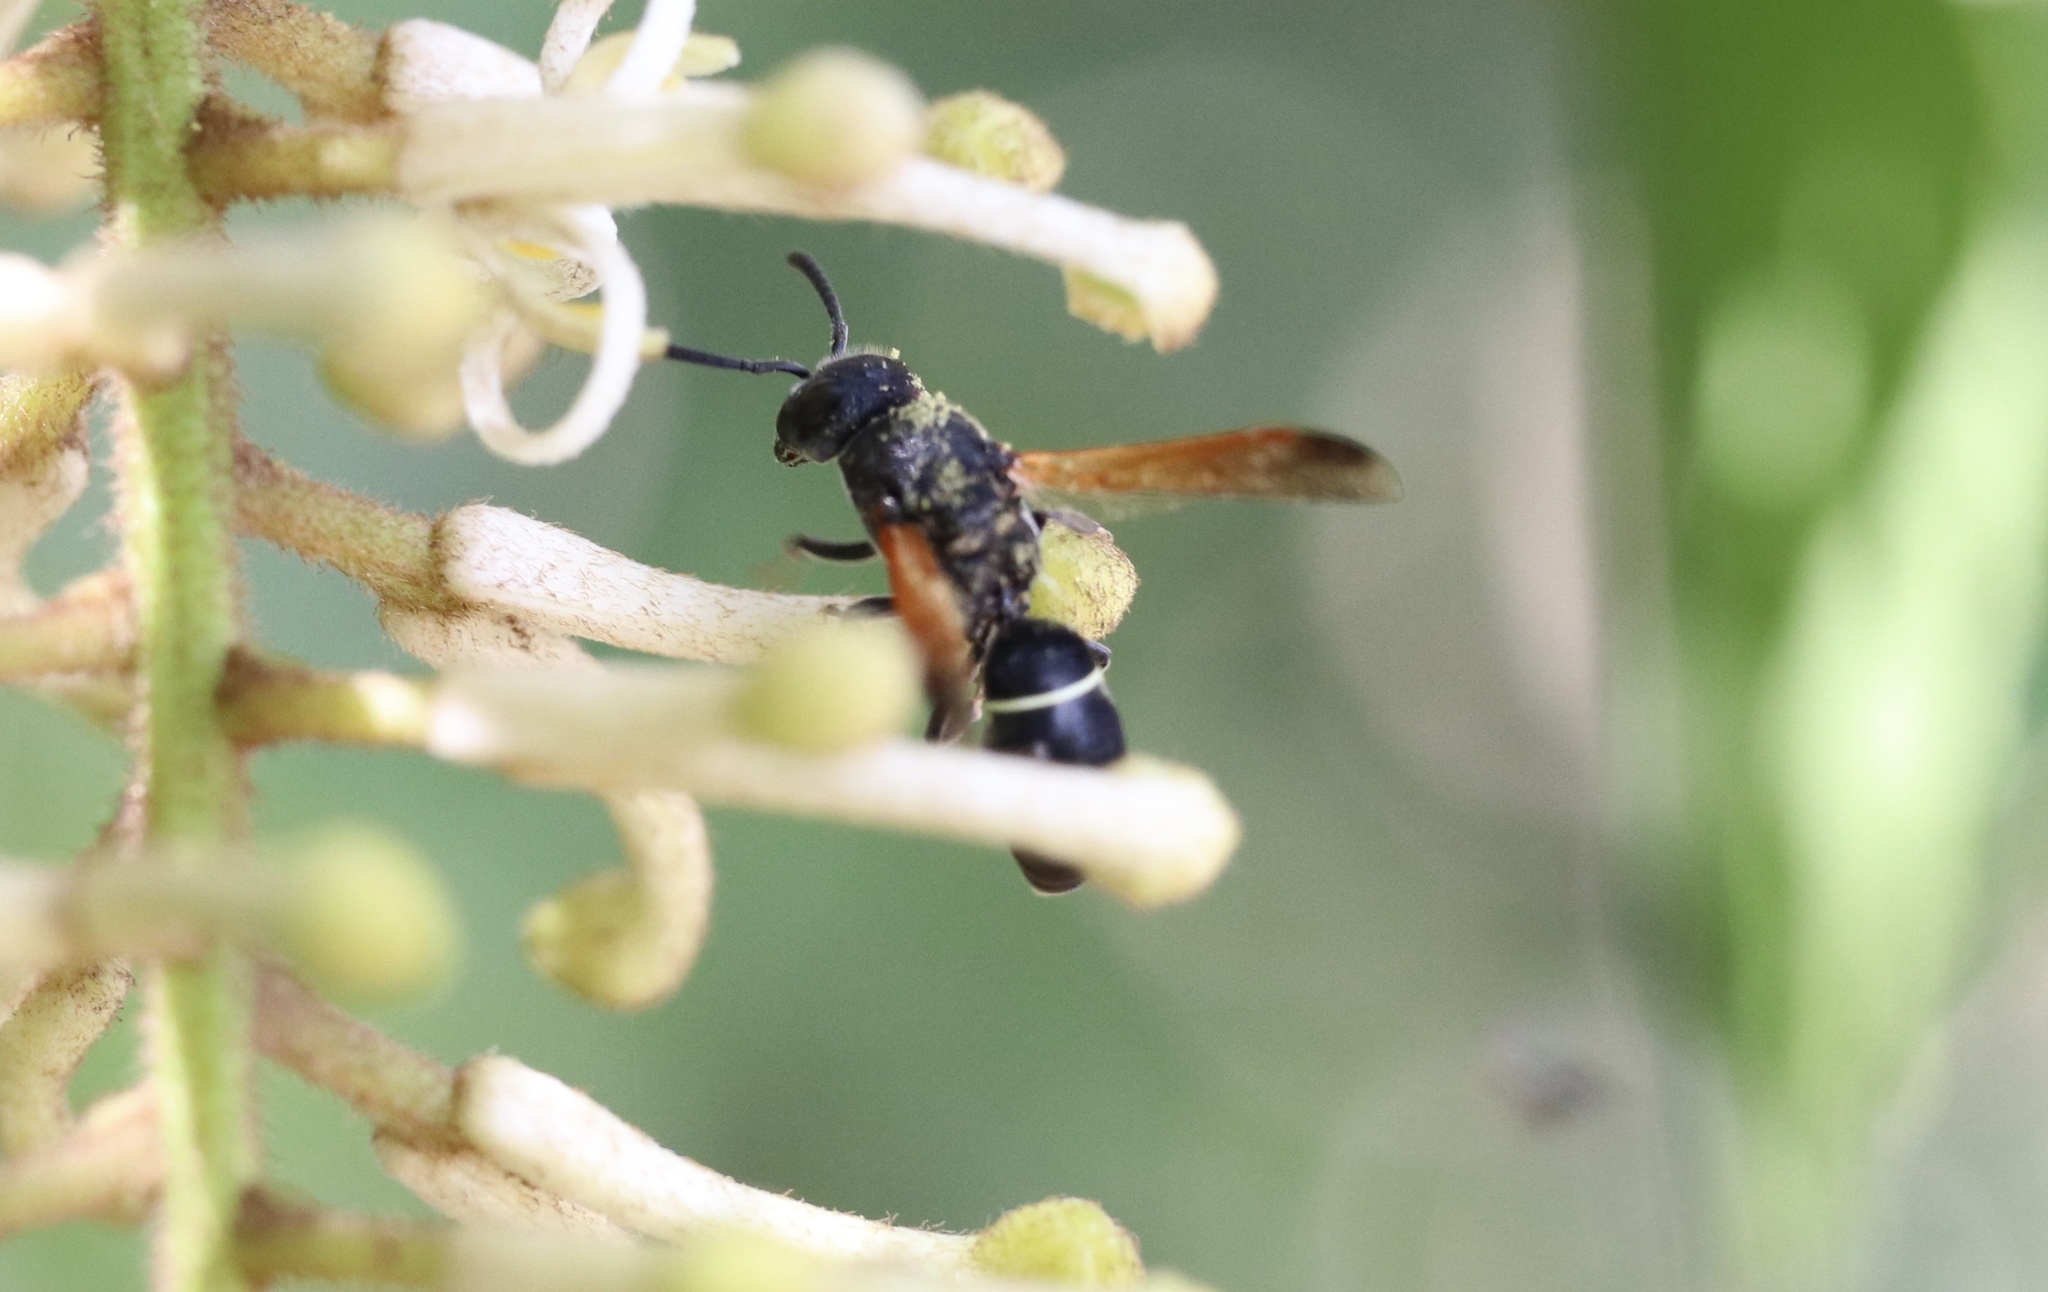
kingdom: Animalia
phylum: Arthropoda
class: Insecta
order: Hymenoptera
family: Eumenidae
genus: Ancistroceroides
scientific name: Ancistroceroides ambiguus
